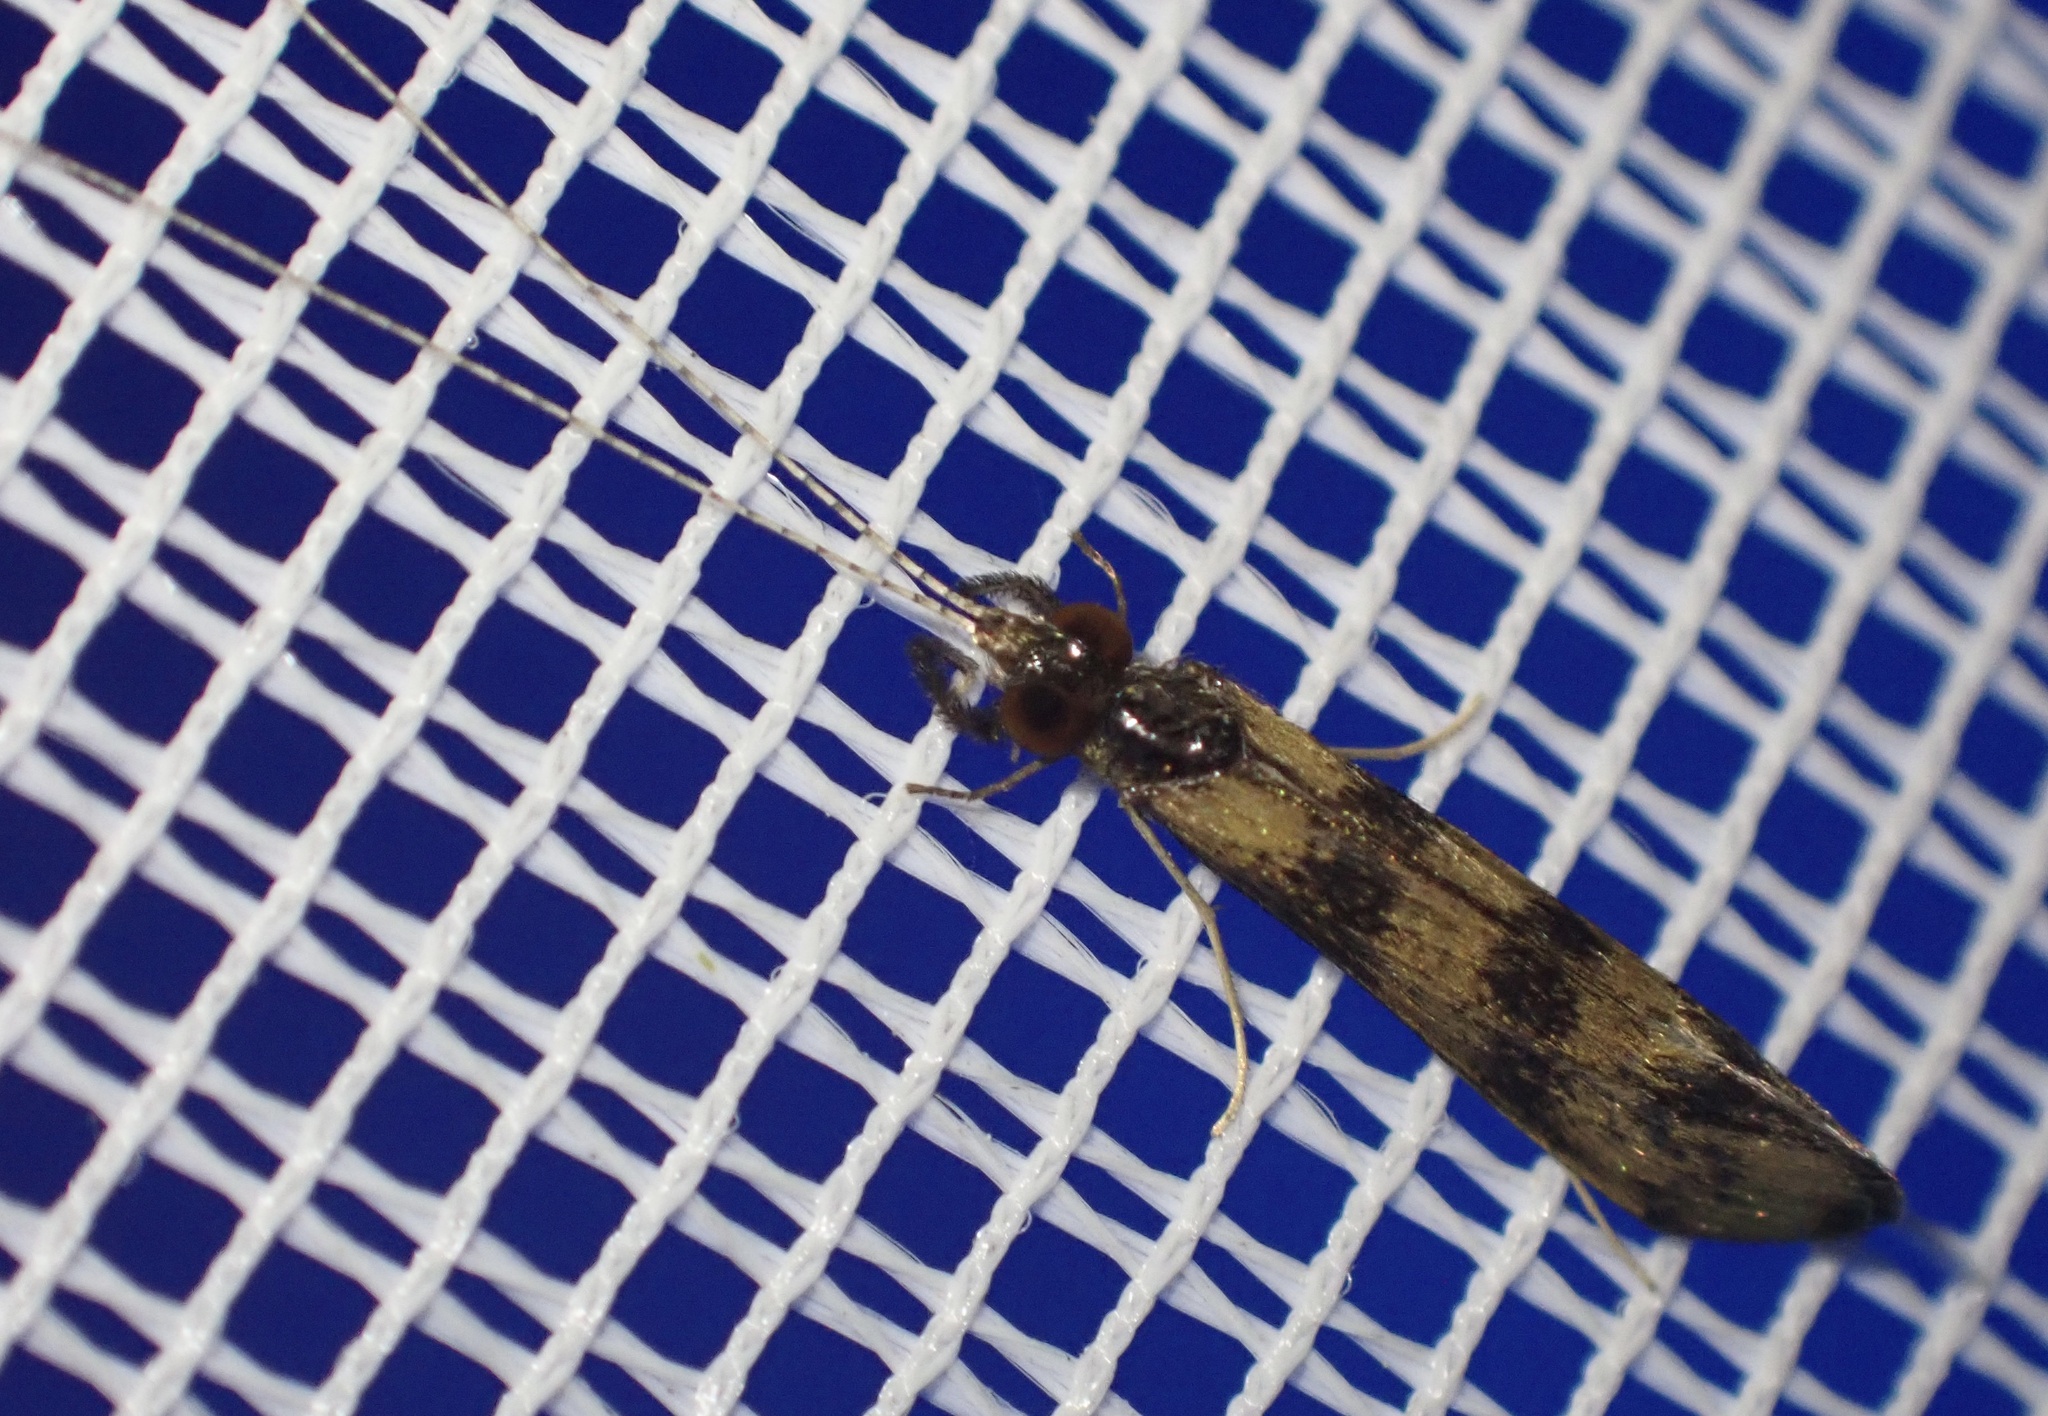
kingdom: Animalia
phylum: Arthropoda
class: Insecta
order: Trichoptera
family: Leptoceridae
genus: Mystacides
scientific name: Mystacides longicornis
